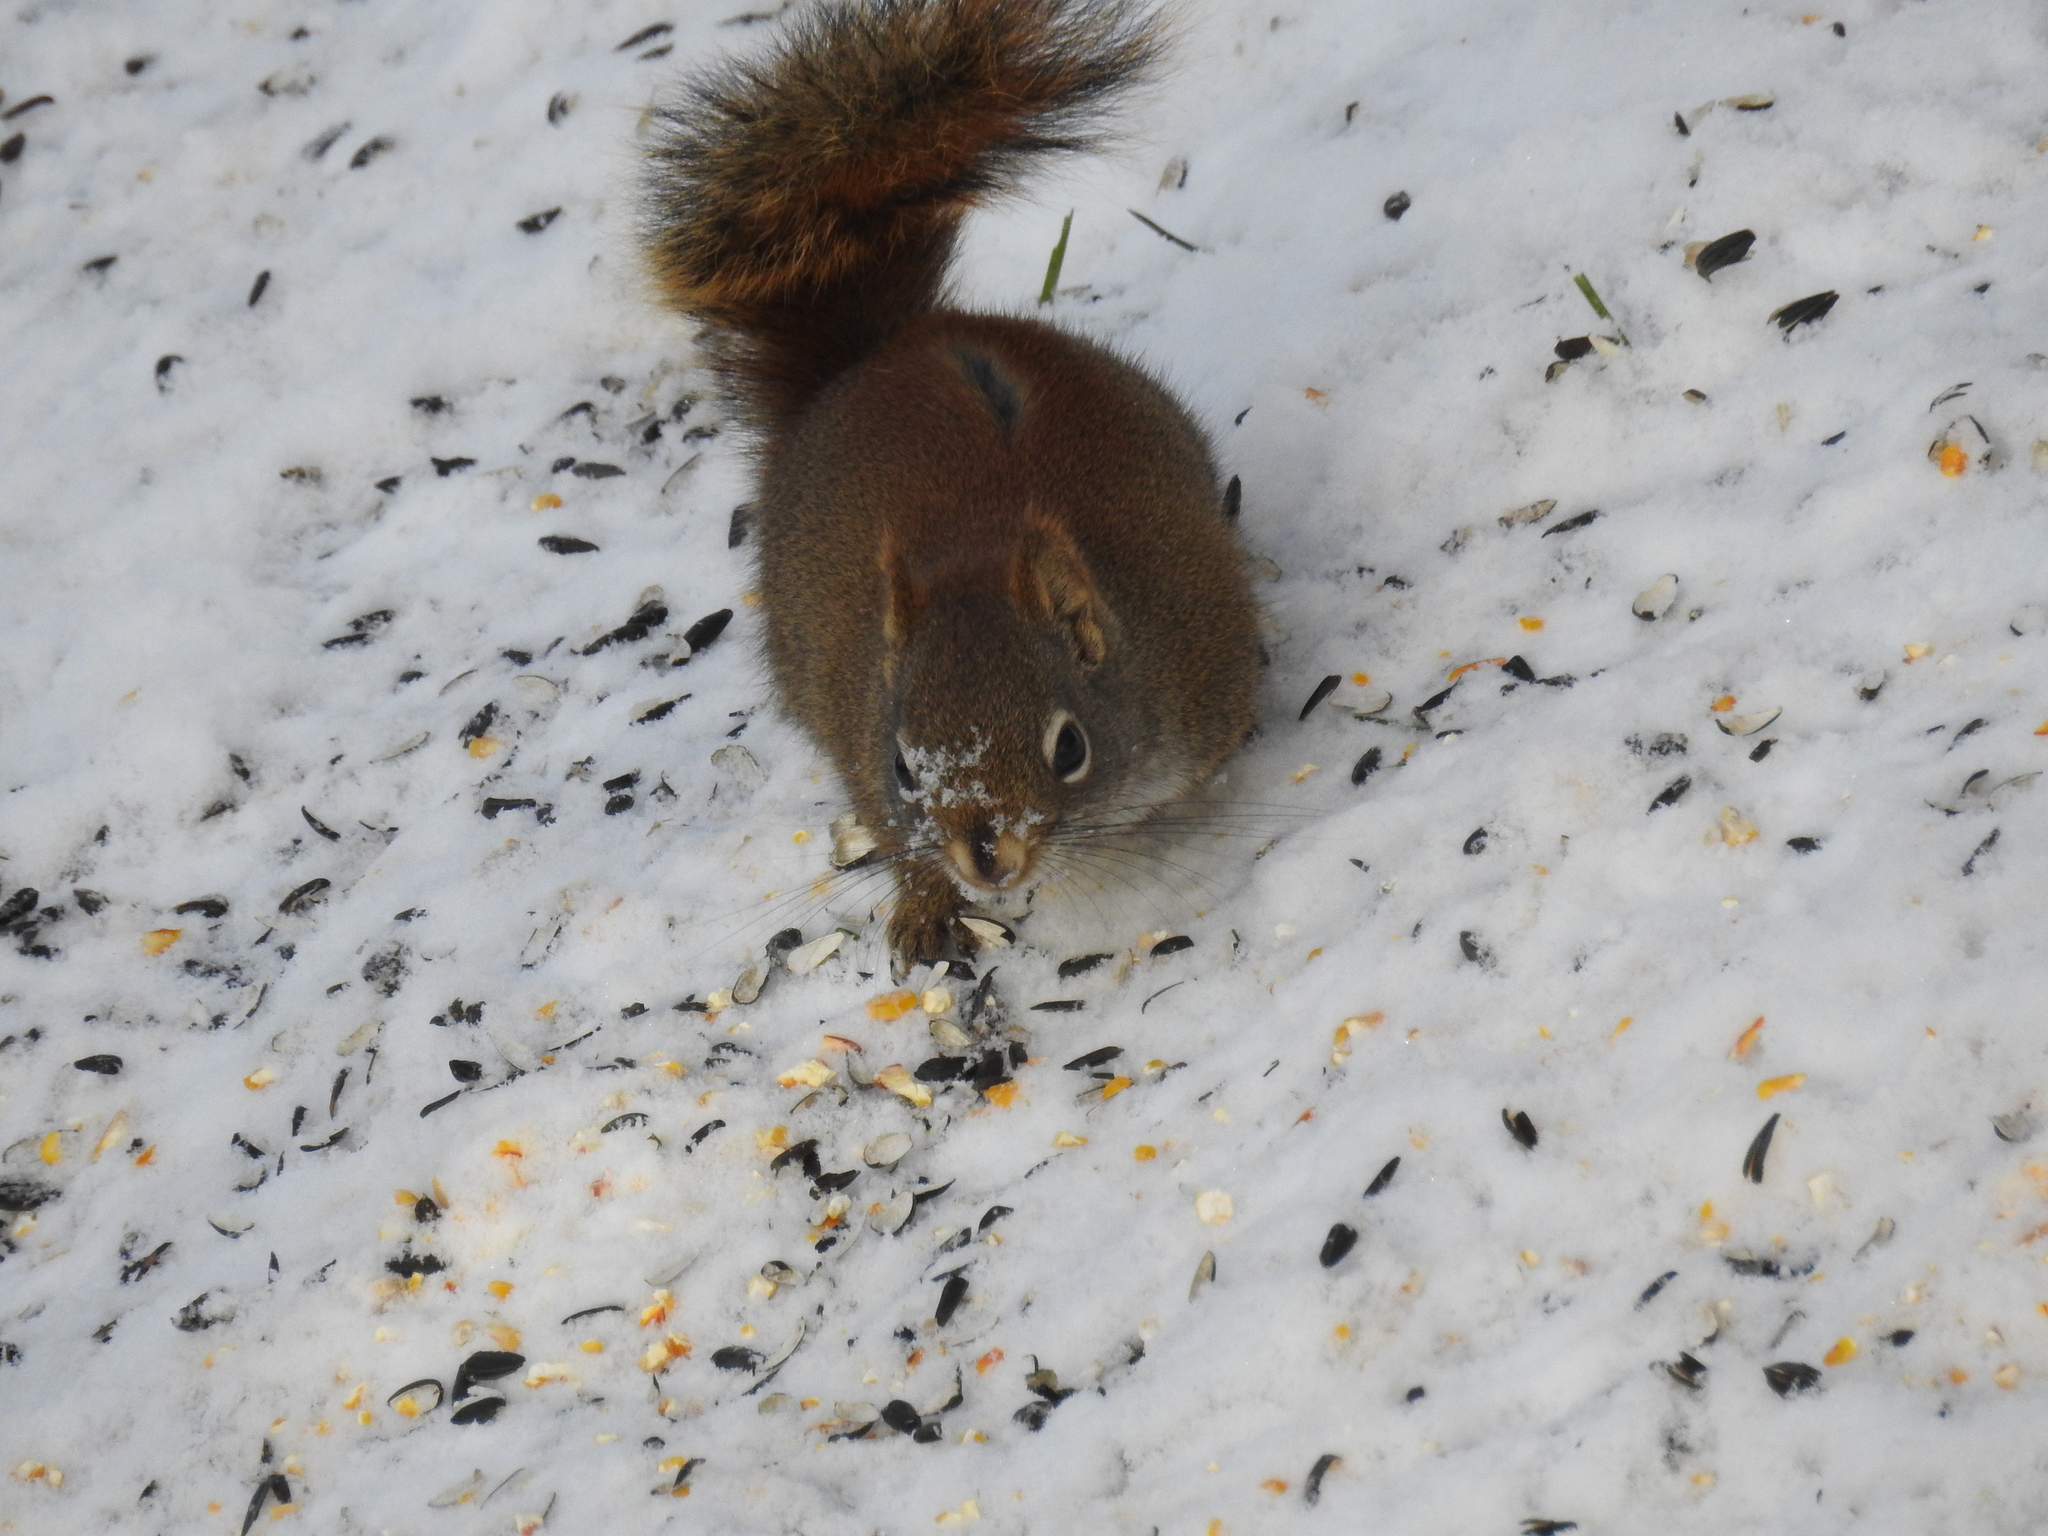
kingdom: Animalia
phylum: Chordata
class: Mammalia
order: Rodentia
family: Sciuridae
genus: Tamiasciurus
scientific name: Tamiasciurus hudsonicus
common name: Red squirrel
